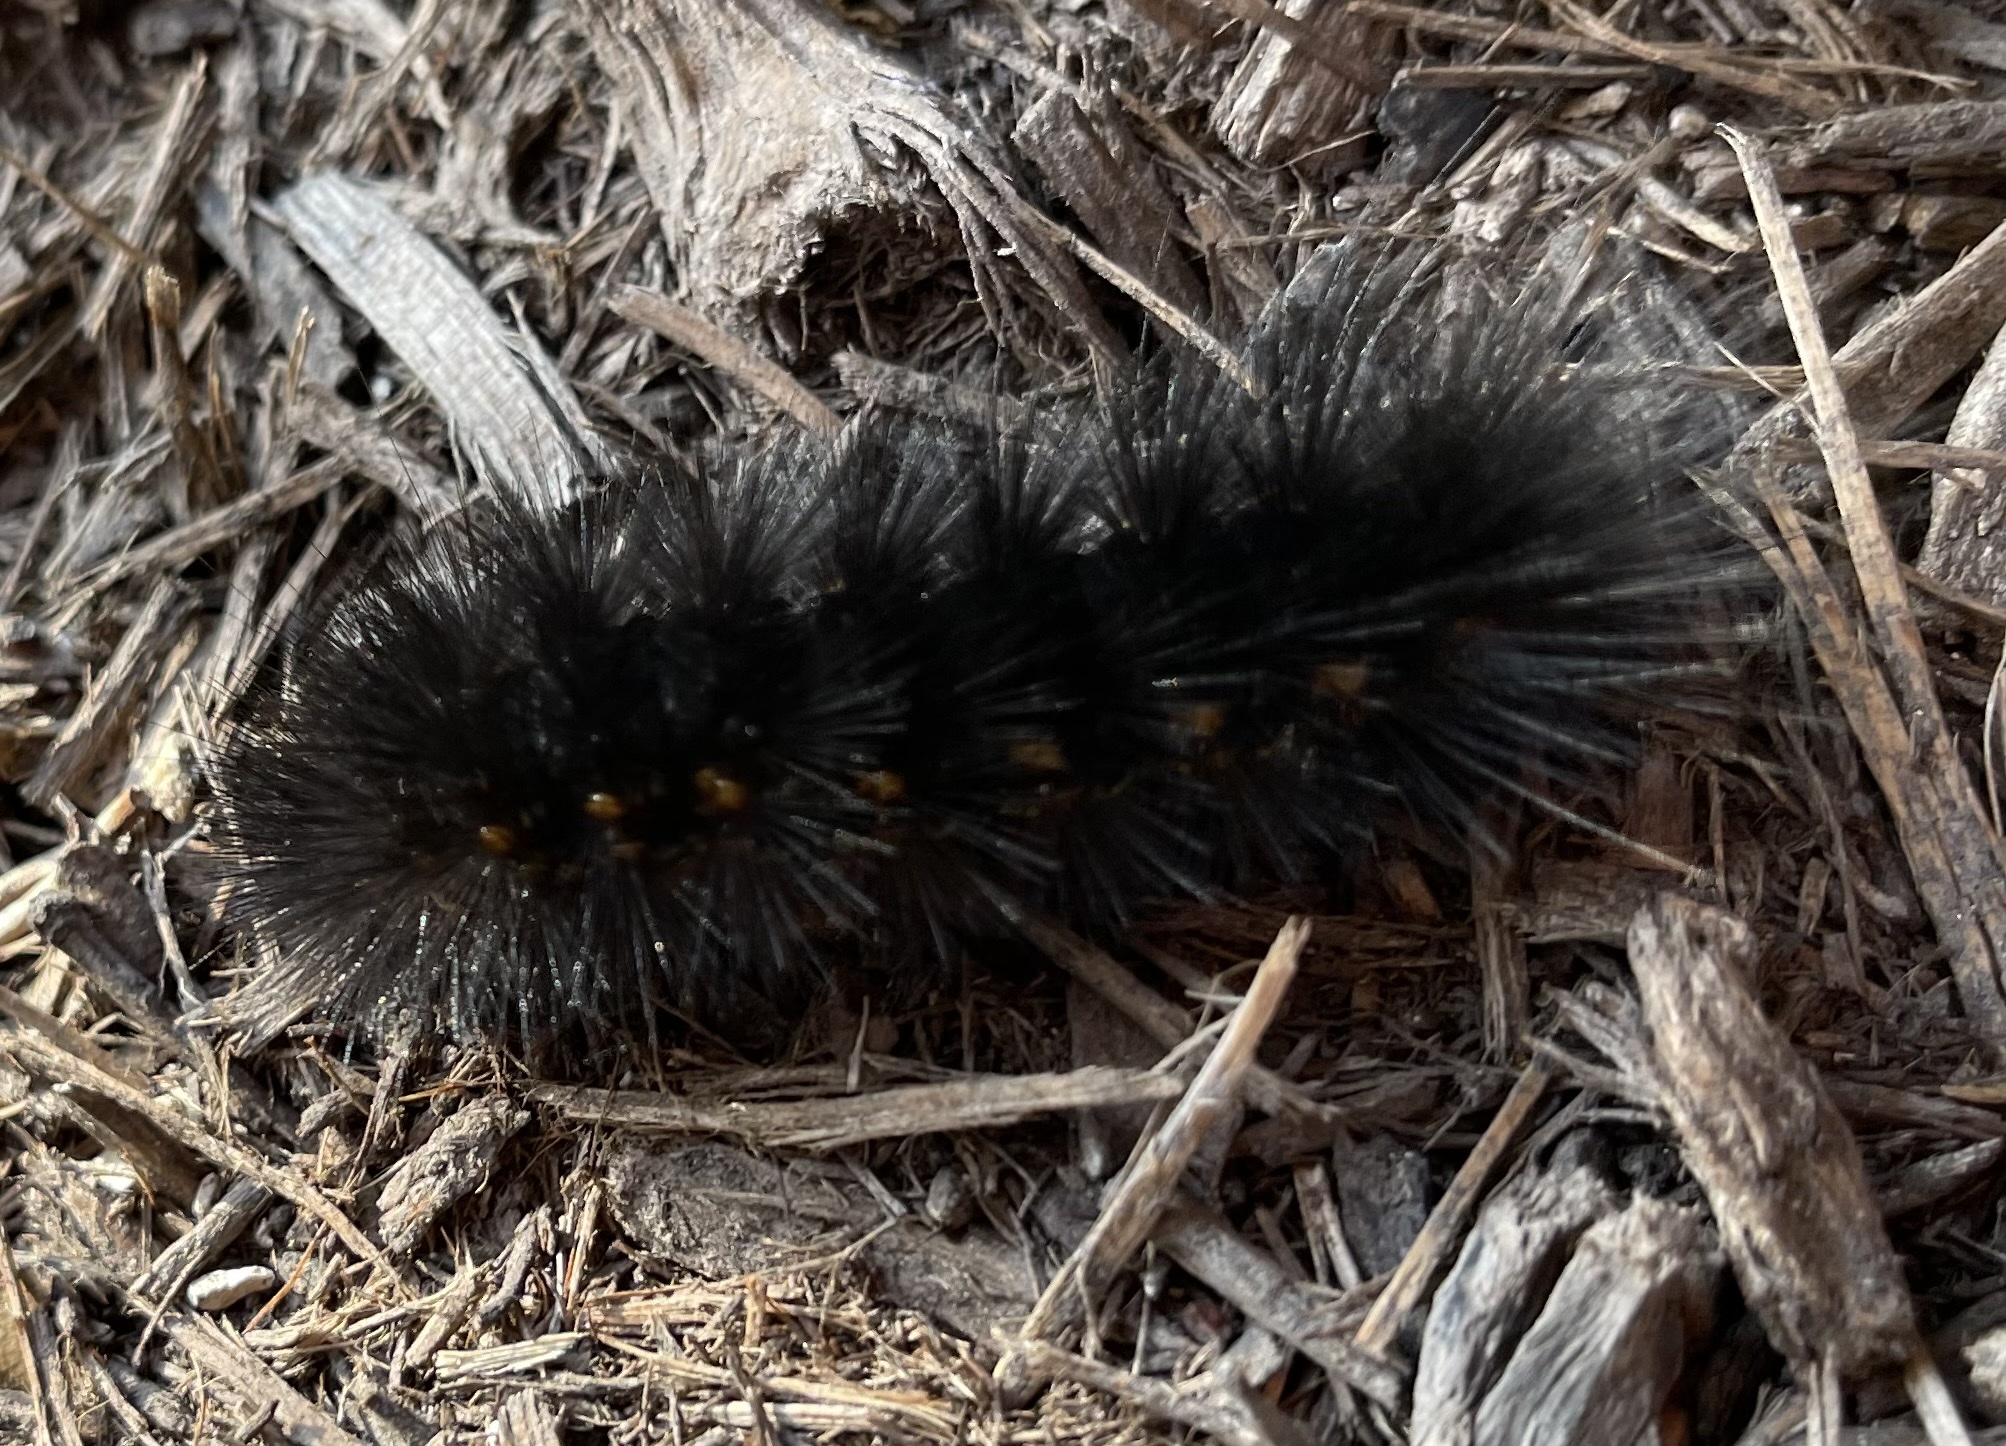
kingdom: Animalia
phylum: Arthropoda
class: Insecta
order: Lepidoptera
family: Erebidae
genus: Estigmene
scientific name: Estigmene acrea
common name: Salt marsh moth
